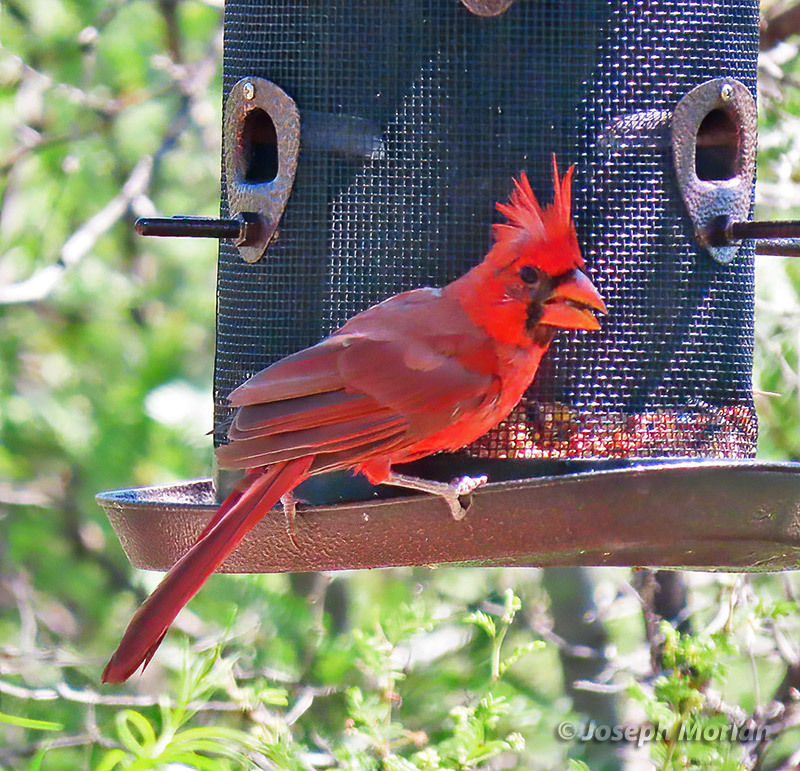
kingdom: Animalia
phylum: Chordata
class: Aves
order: Passeriformes
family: Cardinalidae
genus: Cardinalis
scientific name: Cardinalis cardinalis
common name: Northern cardinal
